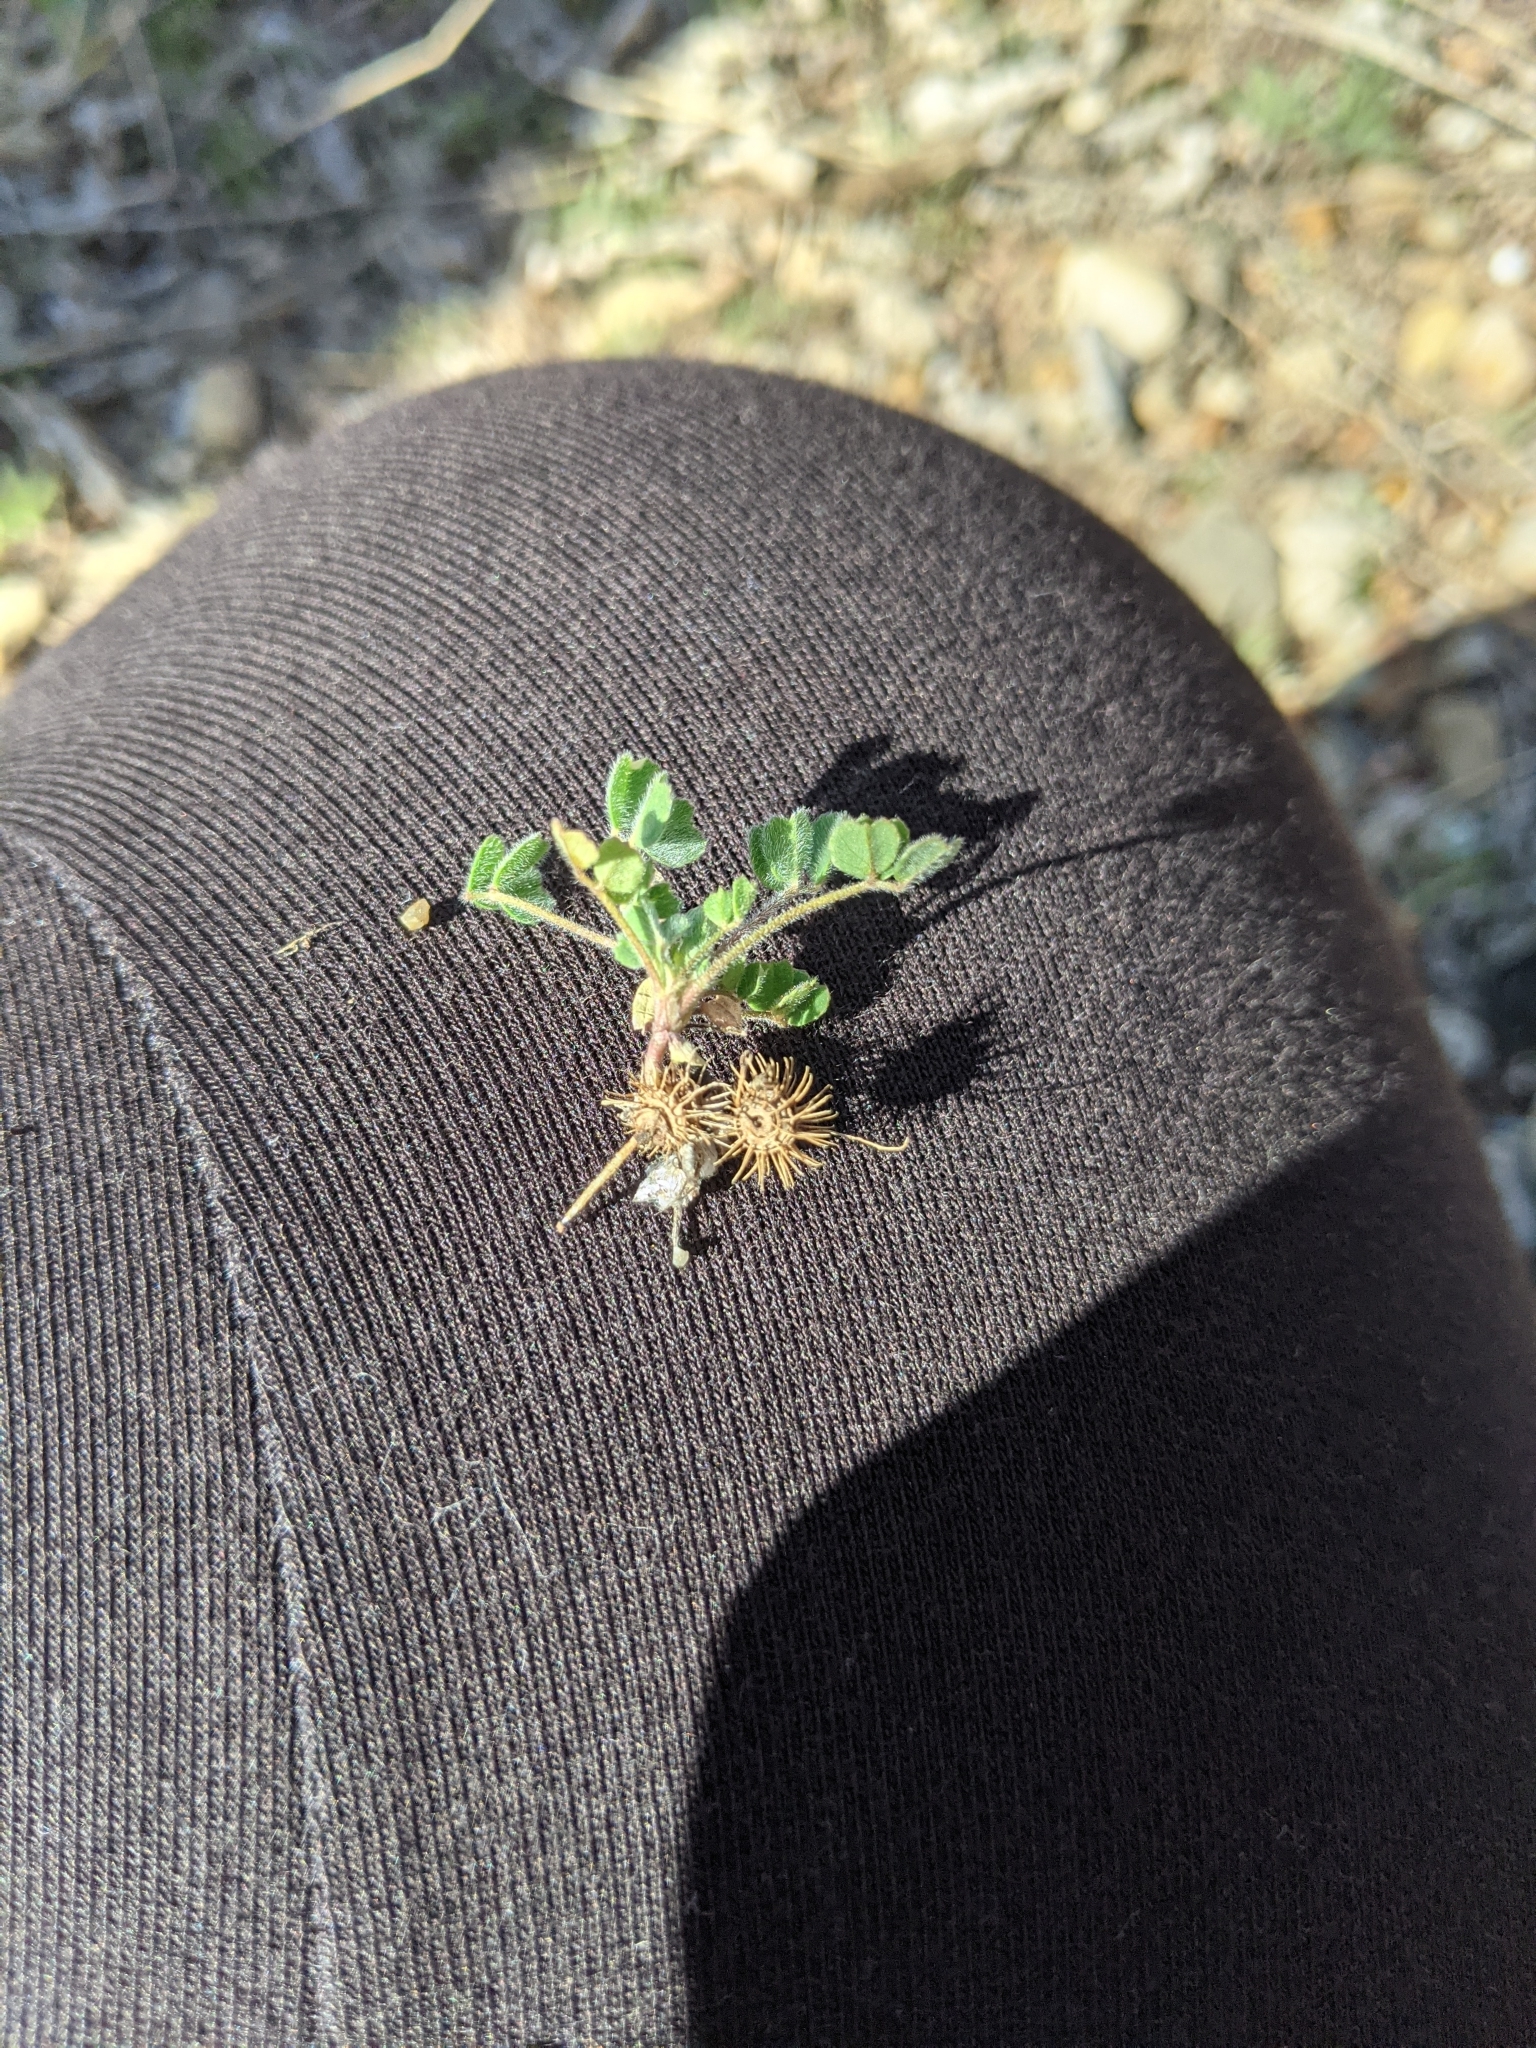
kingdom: Plantae
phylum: Tracheophyta
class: Magnoliopsida
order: Fabales
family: Fabaceae
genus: Medicago
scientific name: Medicago minima
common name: Little bur-clover
